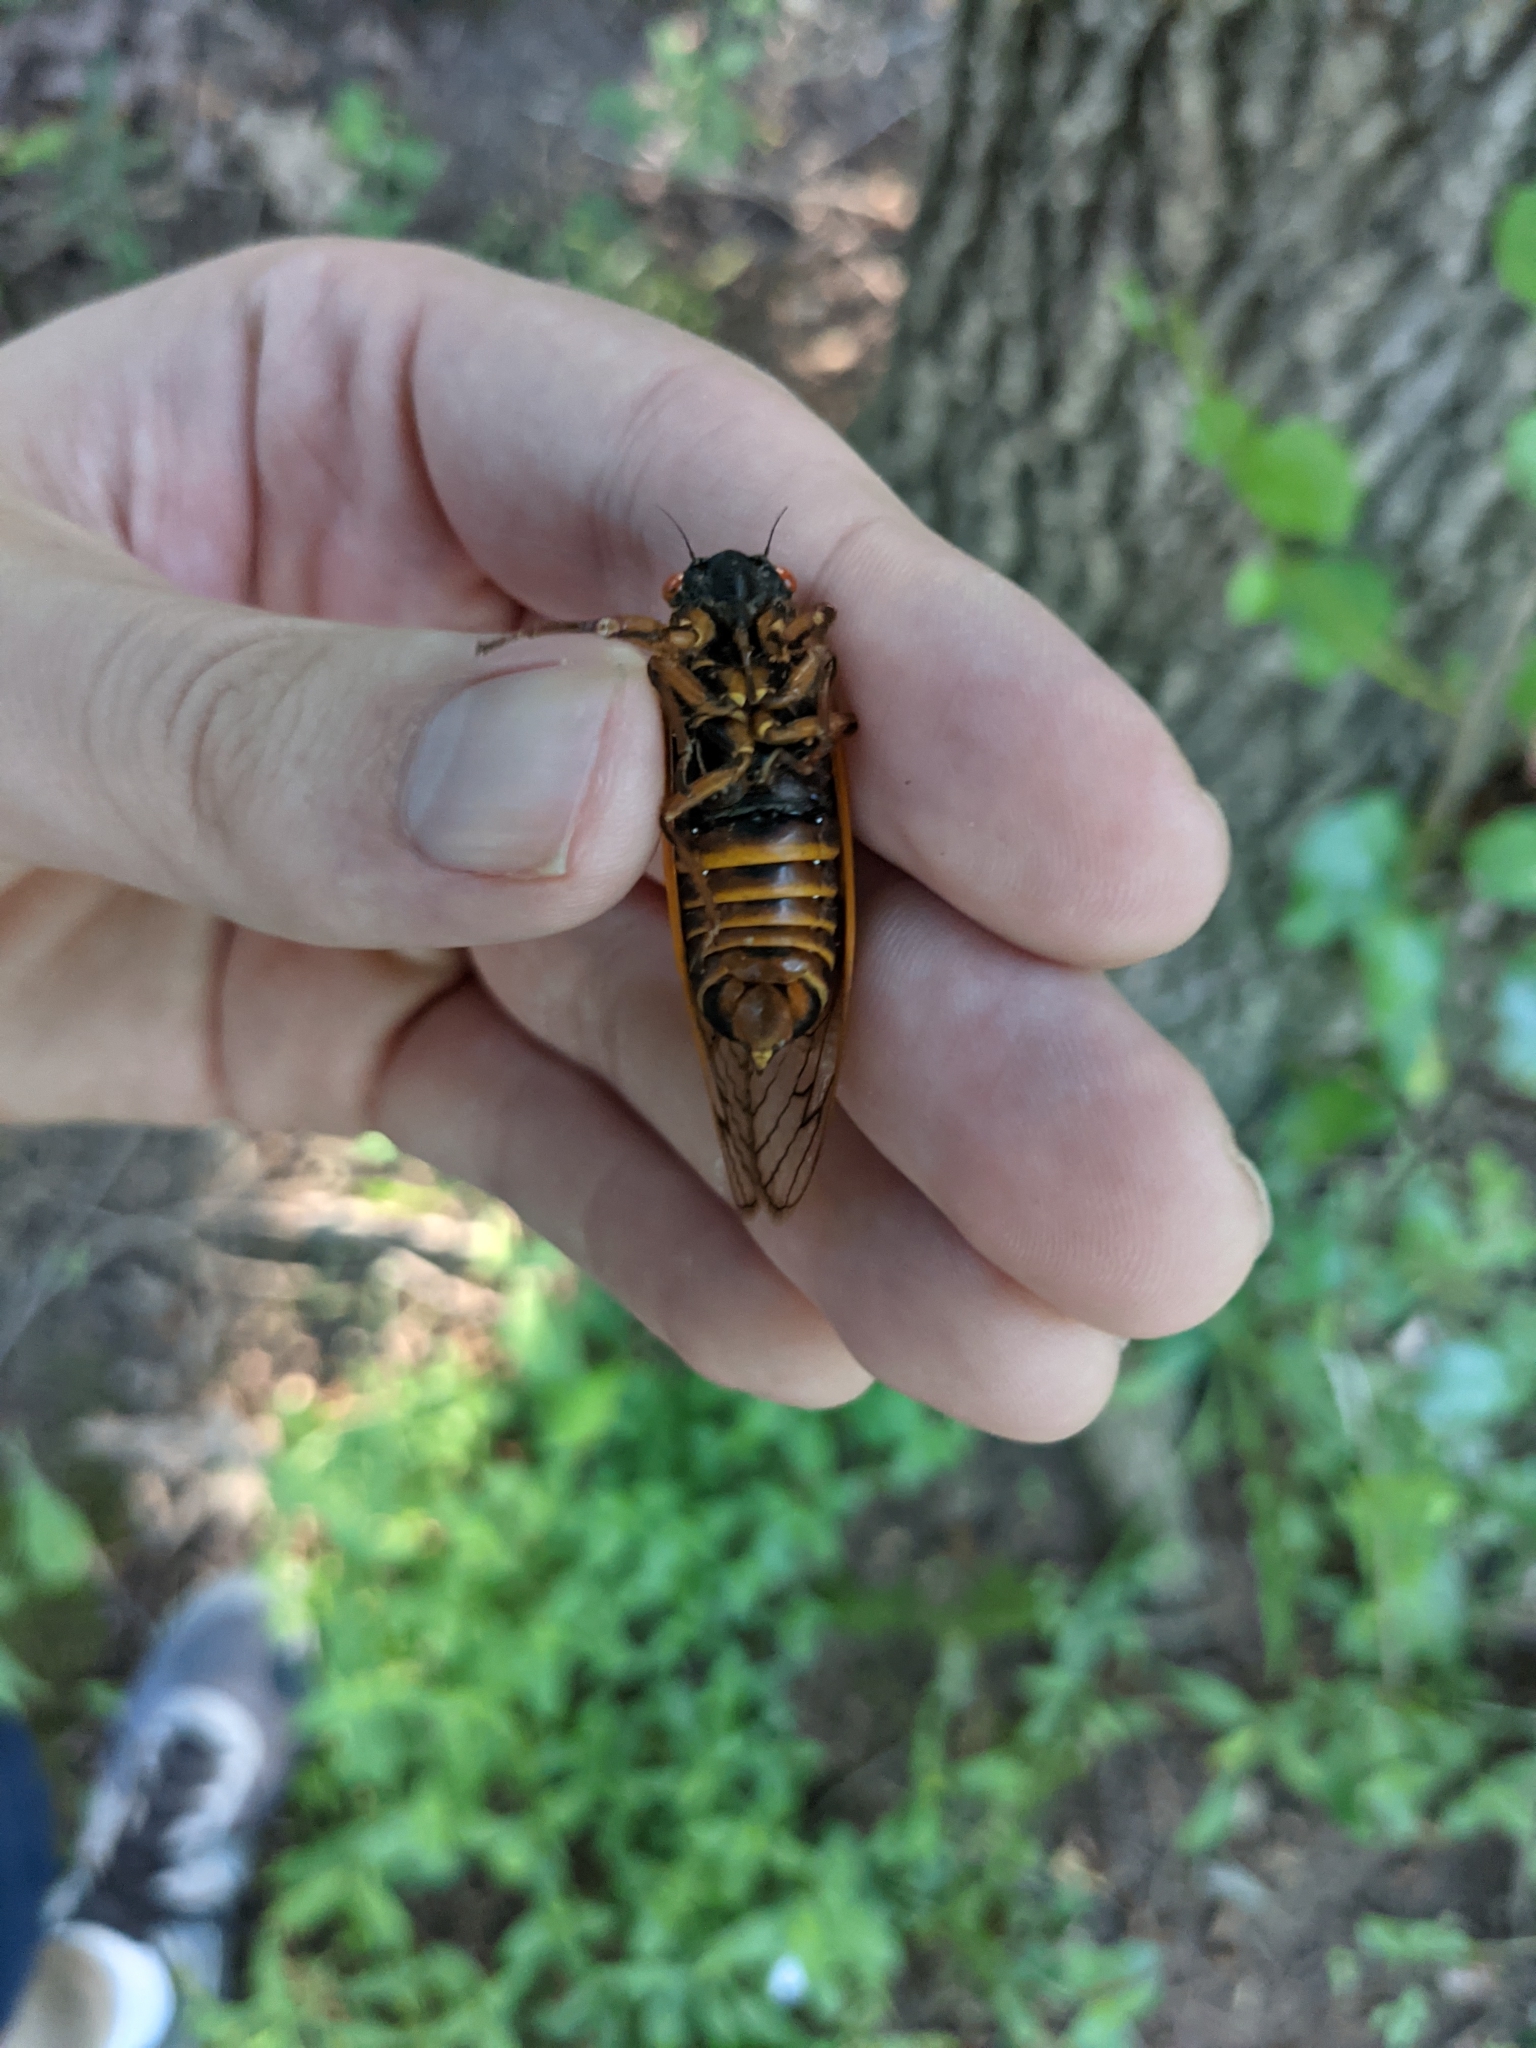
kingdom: Animalia
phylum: Arthropoda
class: Insecta
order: Hemiptera
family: Cicadidae
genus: Magicicada
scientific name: Magicicada septendecim
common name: Periodical cicada
